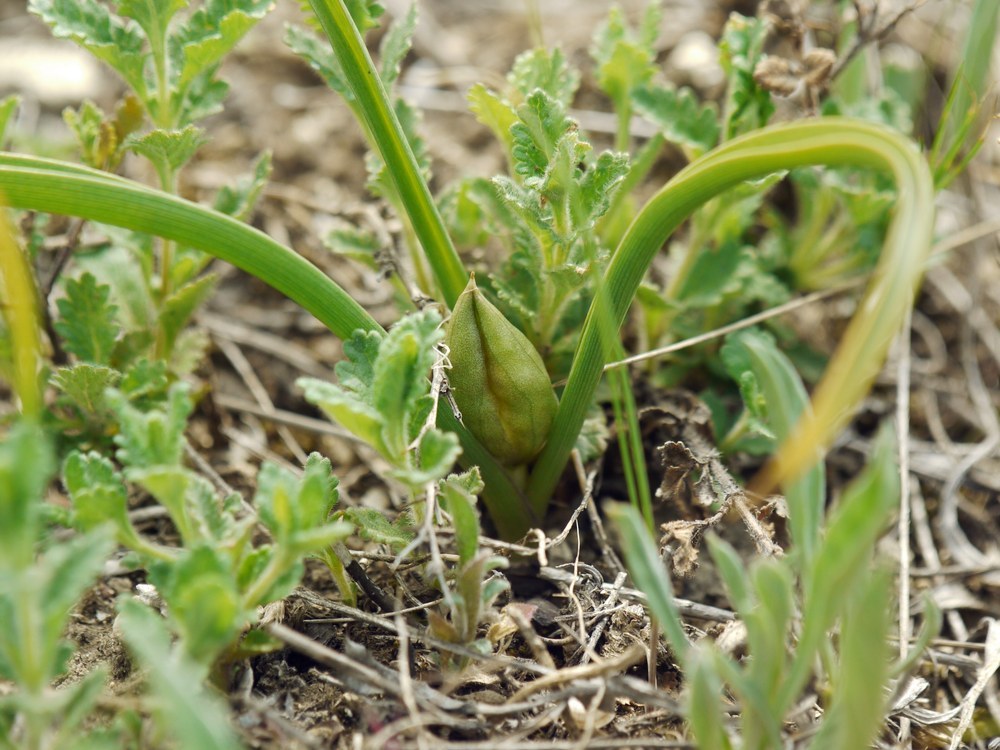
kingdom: Plantae
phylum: Tracheophyta
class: Liliopsida
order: Liliales
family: Colchicaceae
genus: Colchicum
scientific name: Colchicum bulbocodium
